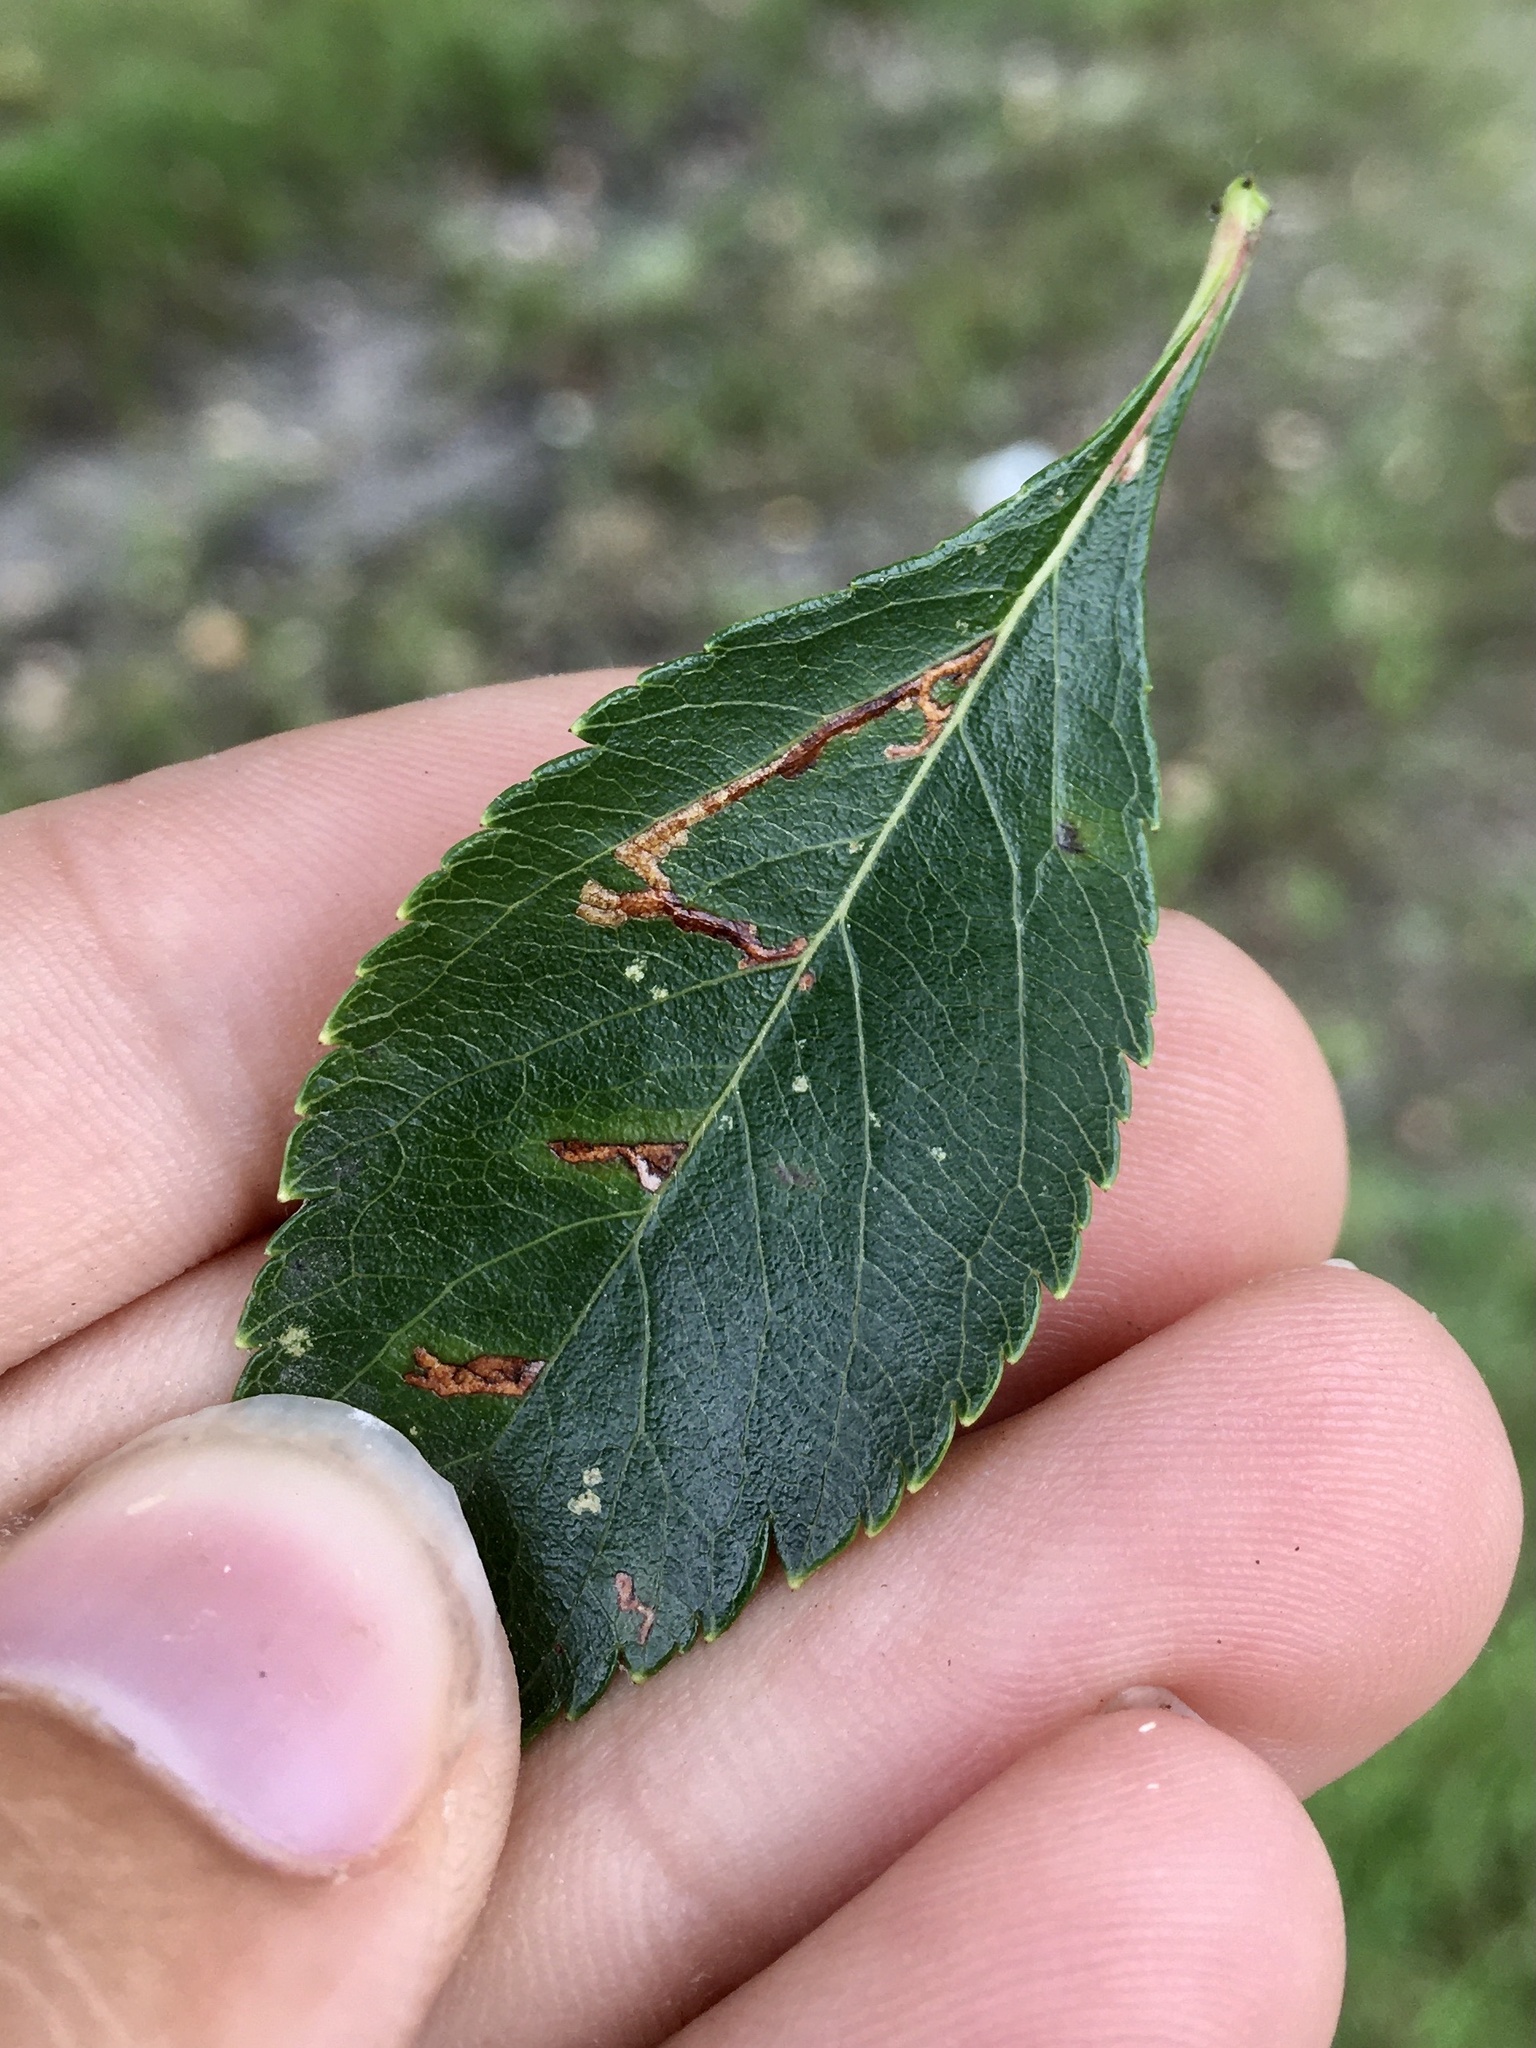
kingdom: Animalia
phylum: Arthropoda
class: Insecta
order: Lepidoptera
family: Gelechiidae
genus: Recurvaria
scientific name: Recurvaria nanella
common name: Gelechiid moth
